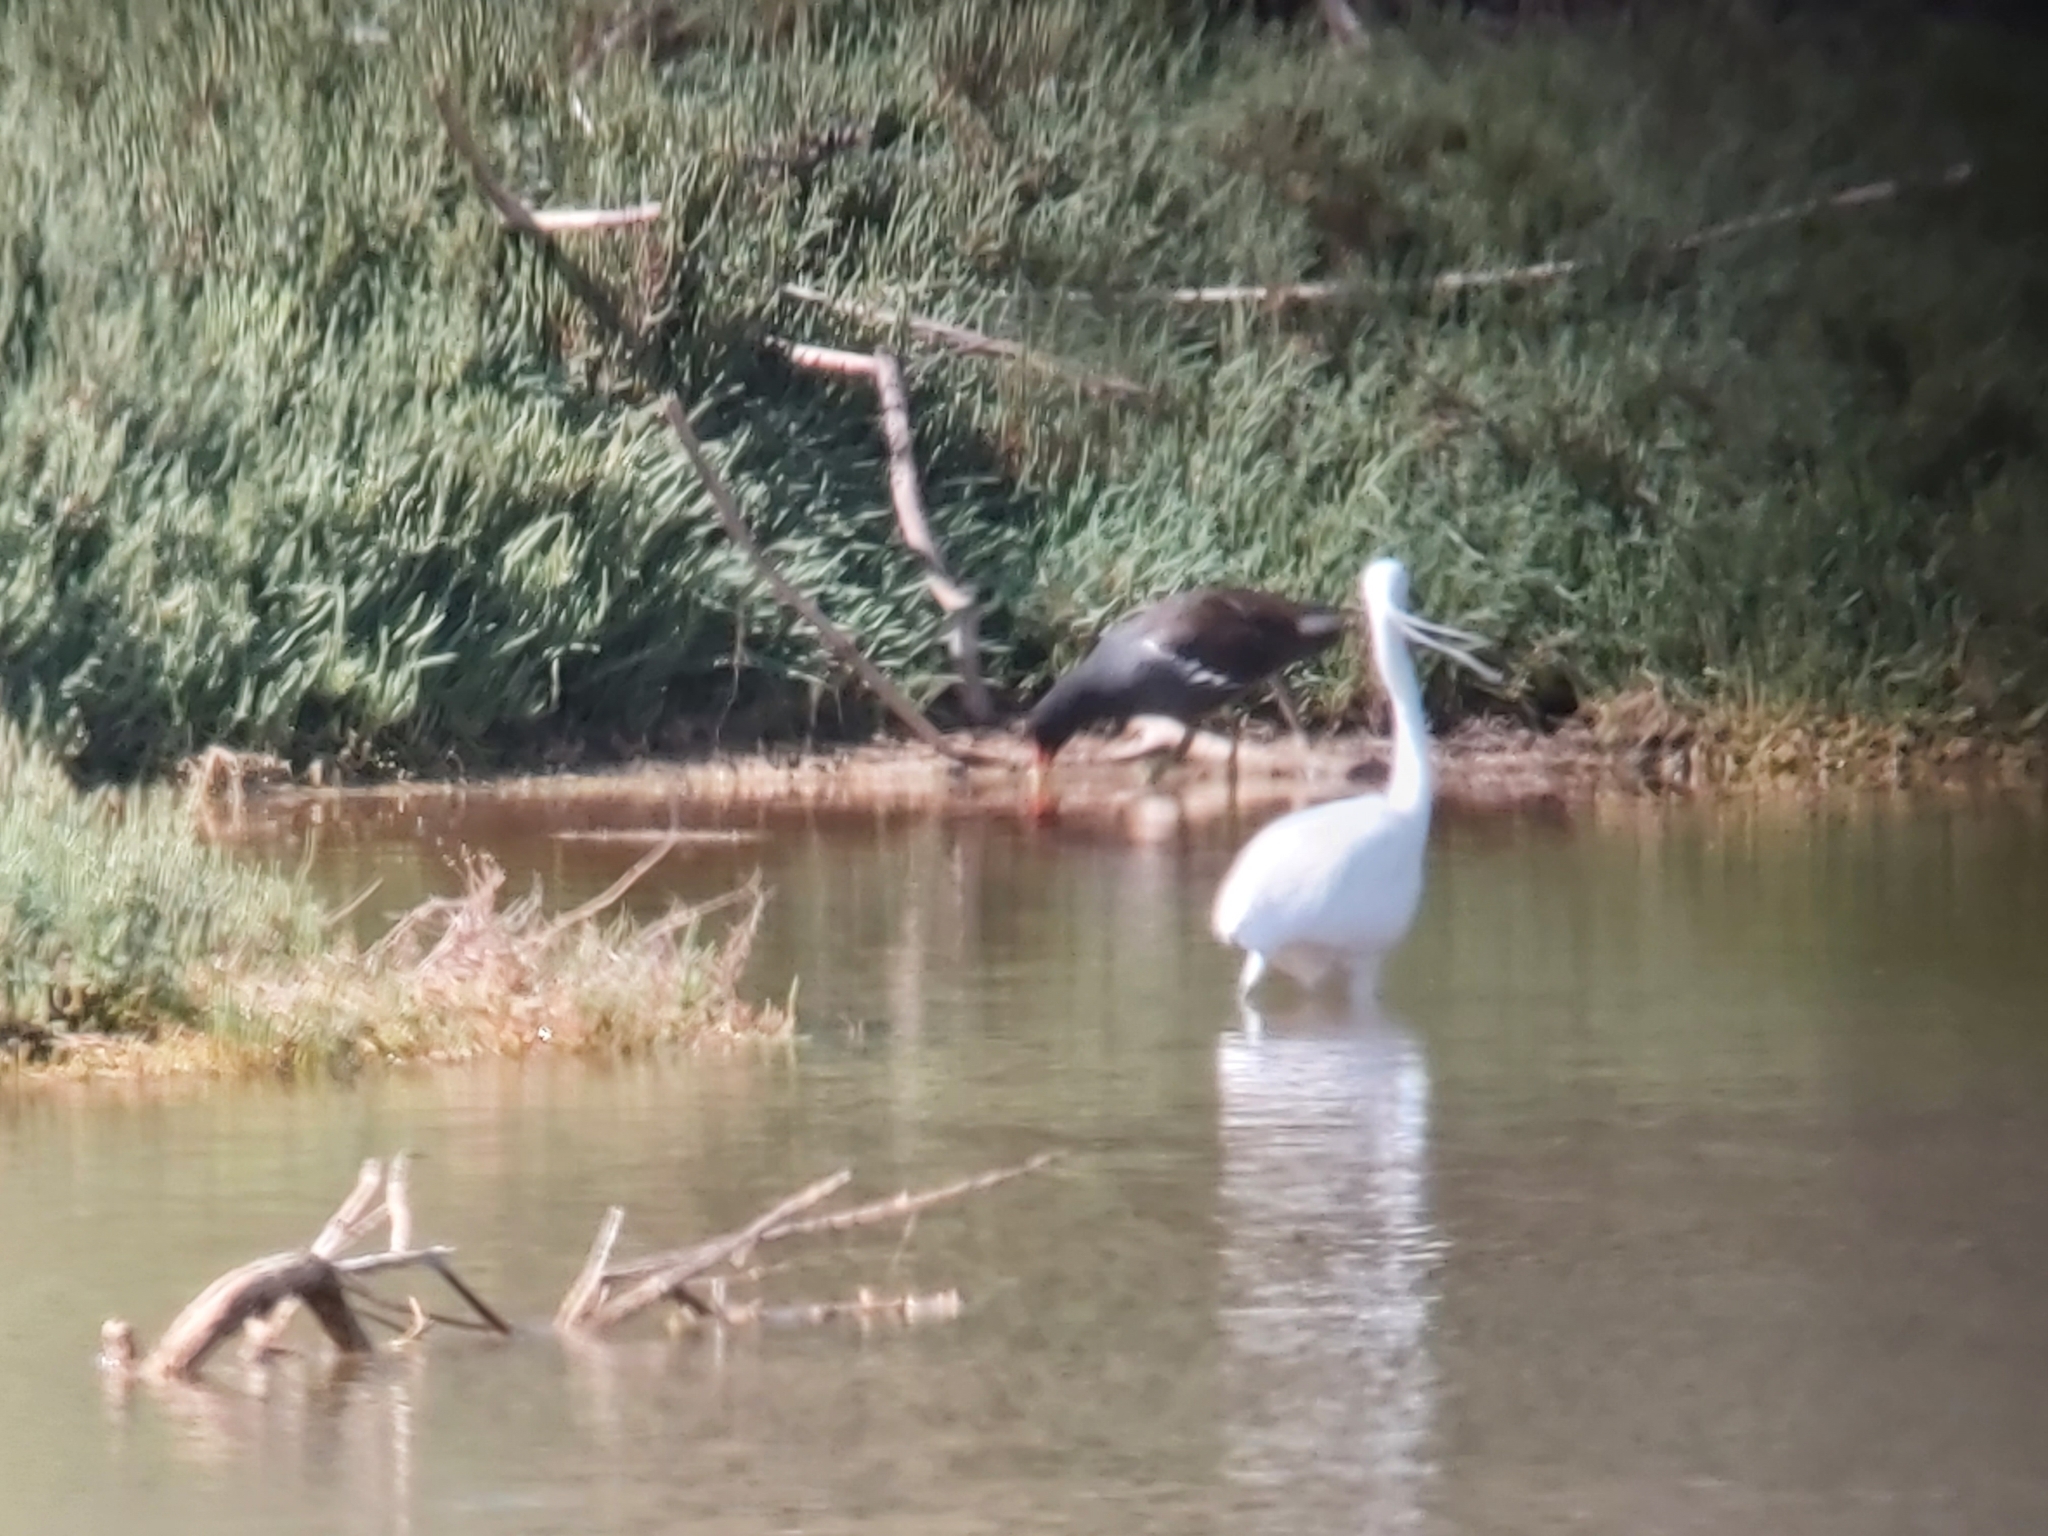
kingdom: Animalia
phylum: Chordata
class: Aves
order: Gruiformes
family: Rallidae
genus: Gallinula
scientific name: Gallinula chloropus
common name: Common moorhen
